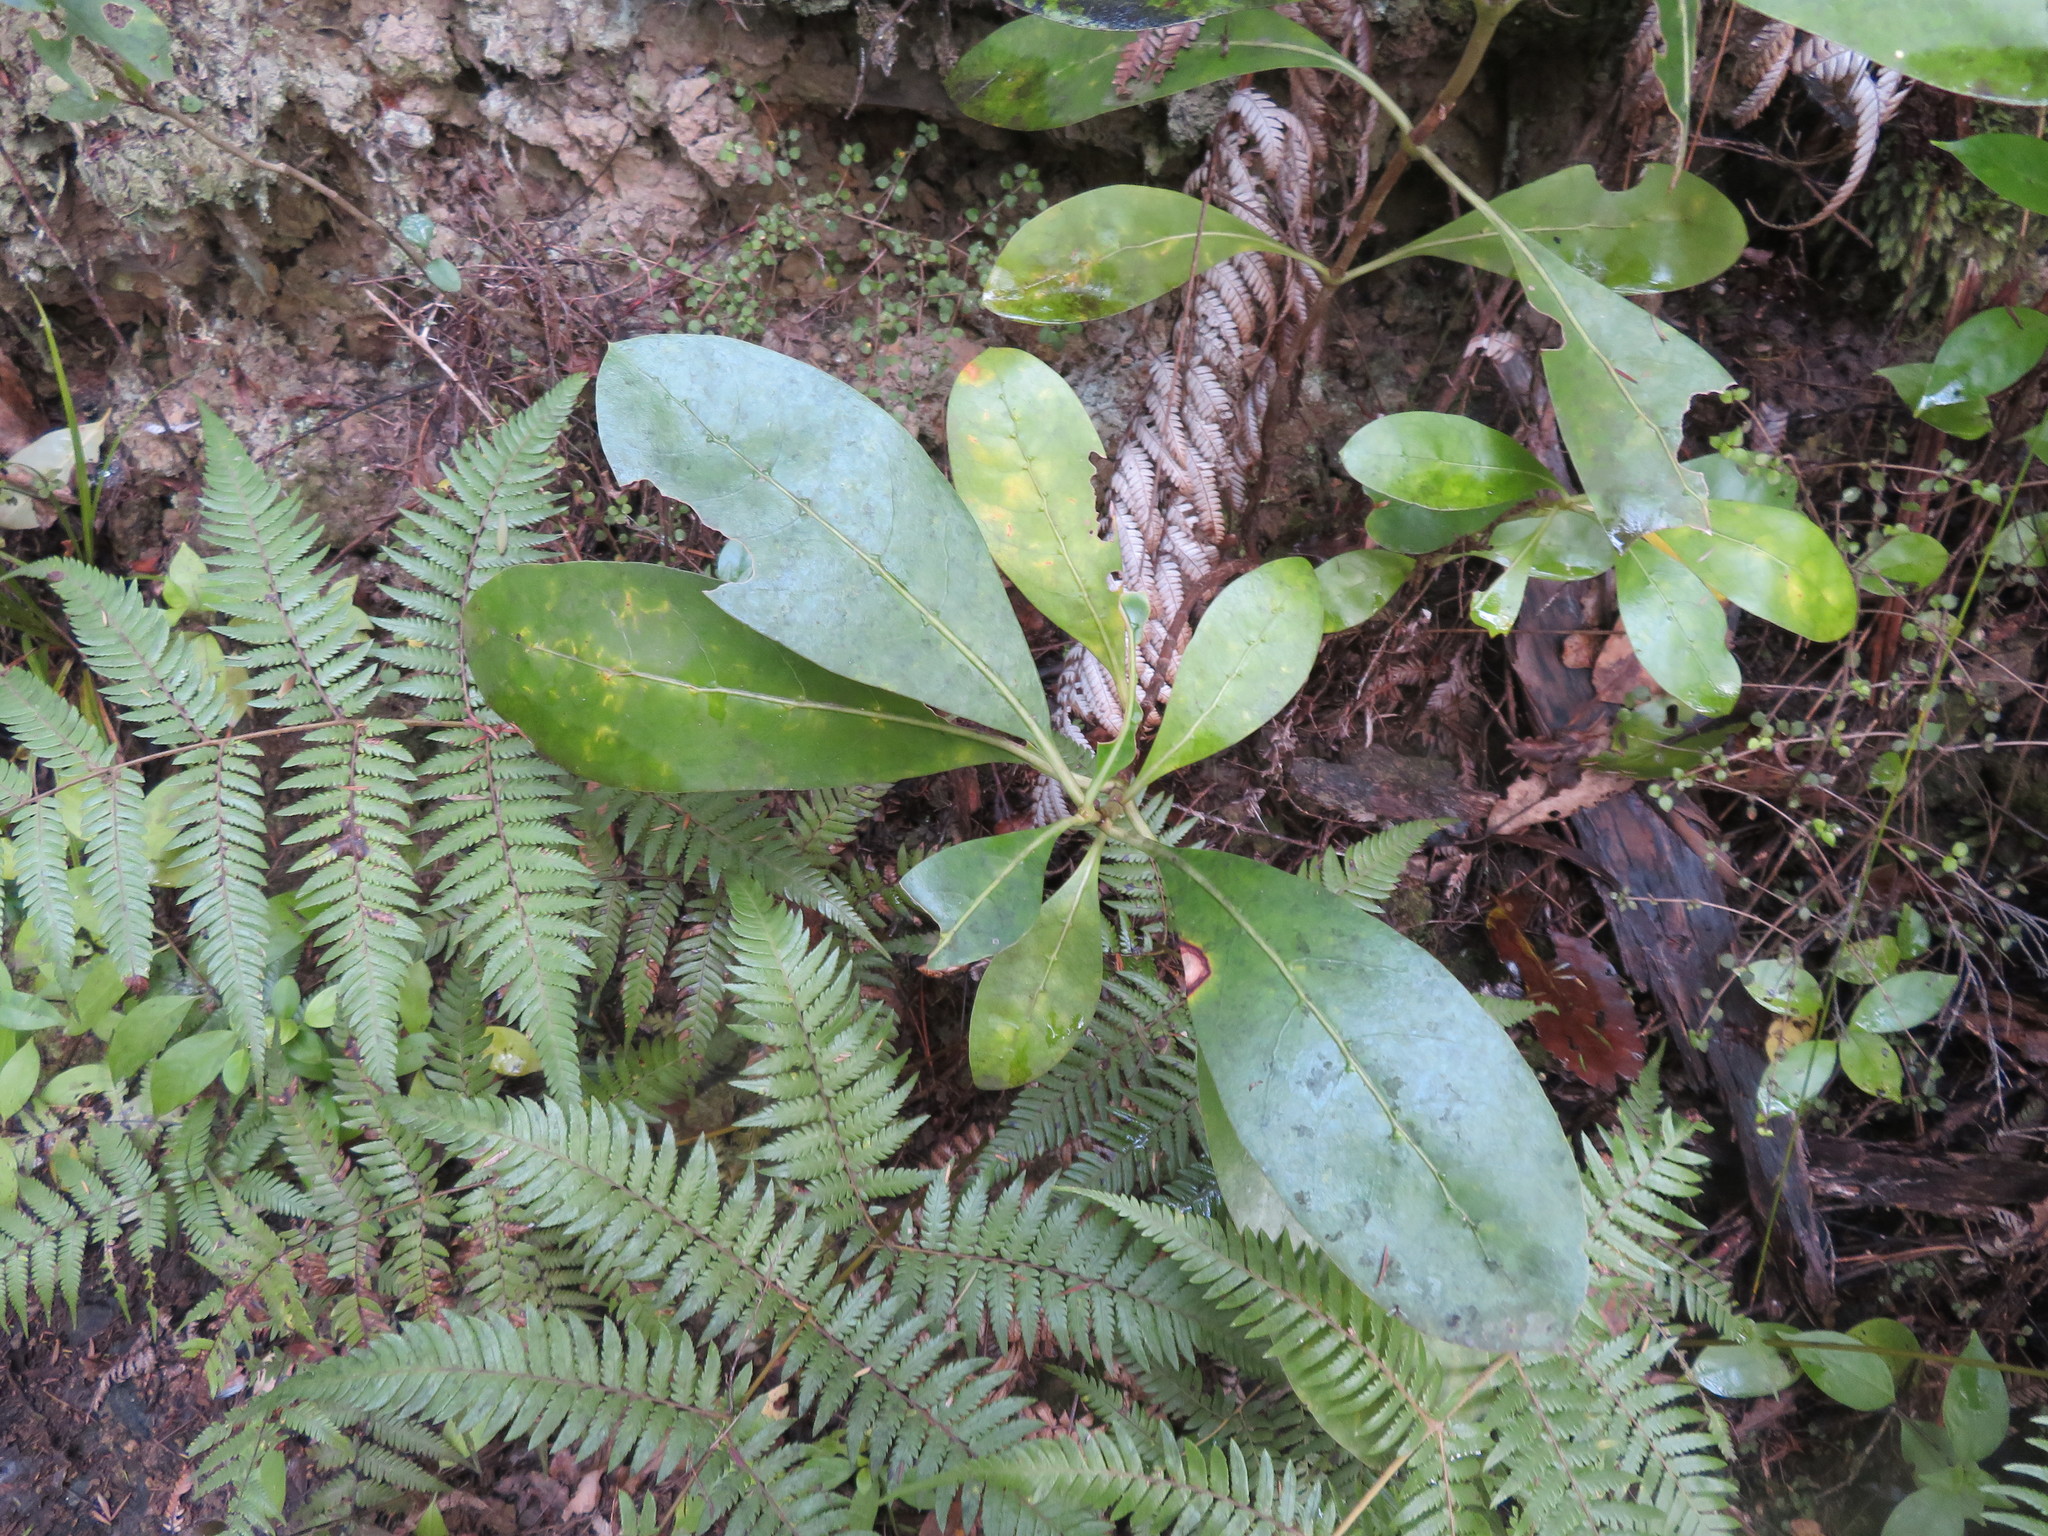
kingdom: Plantae
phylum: Tracheophyta
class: Magnoliopsida
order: Gentianales
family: Rubiaceae
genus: Coprosma
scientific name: Coprosma lucida
